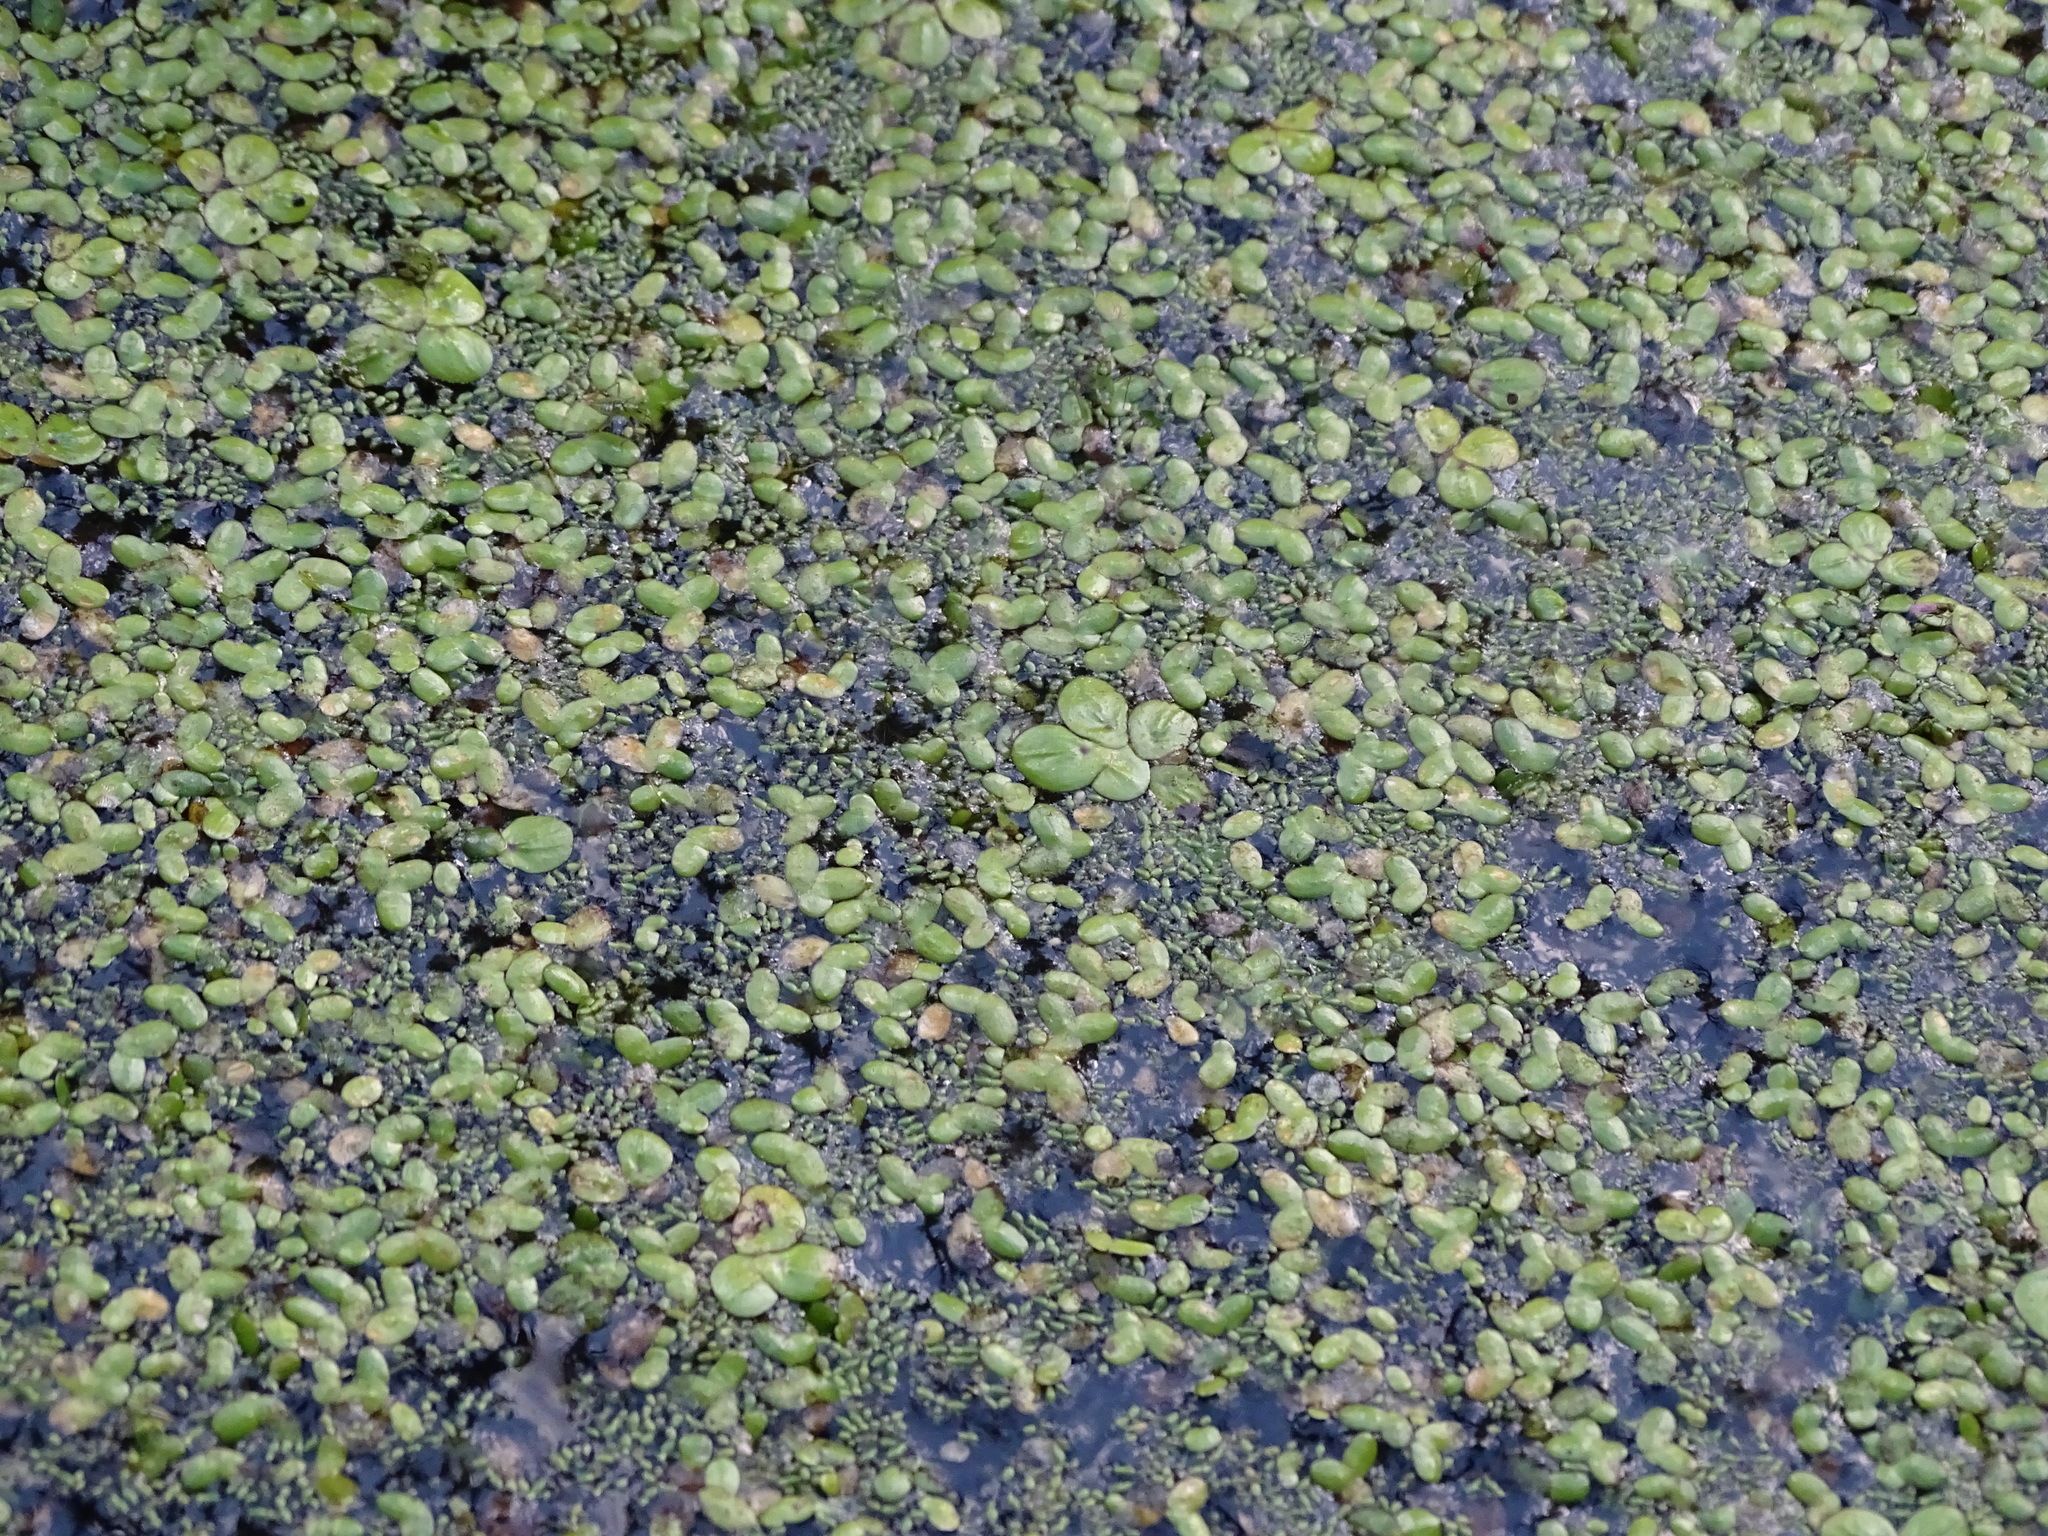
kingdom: Plantae
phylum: Tracheophyta
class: Liliopsida
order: Alismatales
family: Araceae
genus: Spirodela
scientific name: Spirodela polyrhiza
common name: Great duckweed
